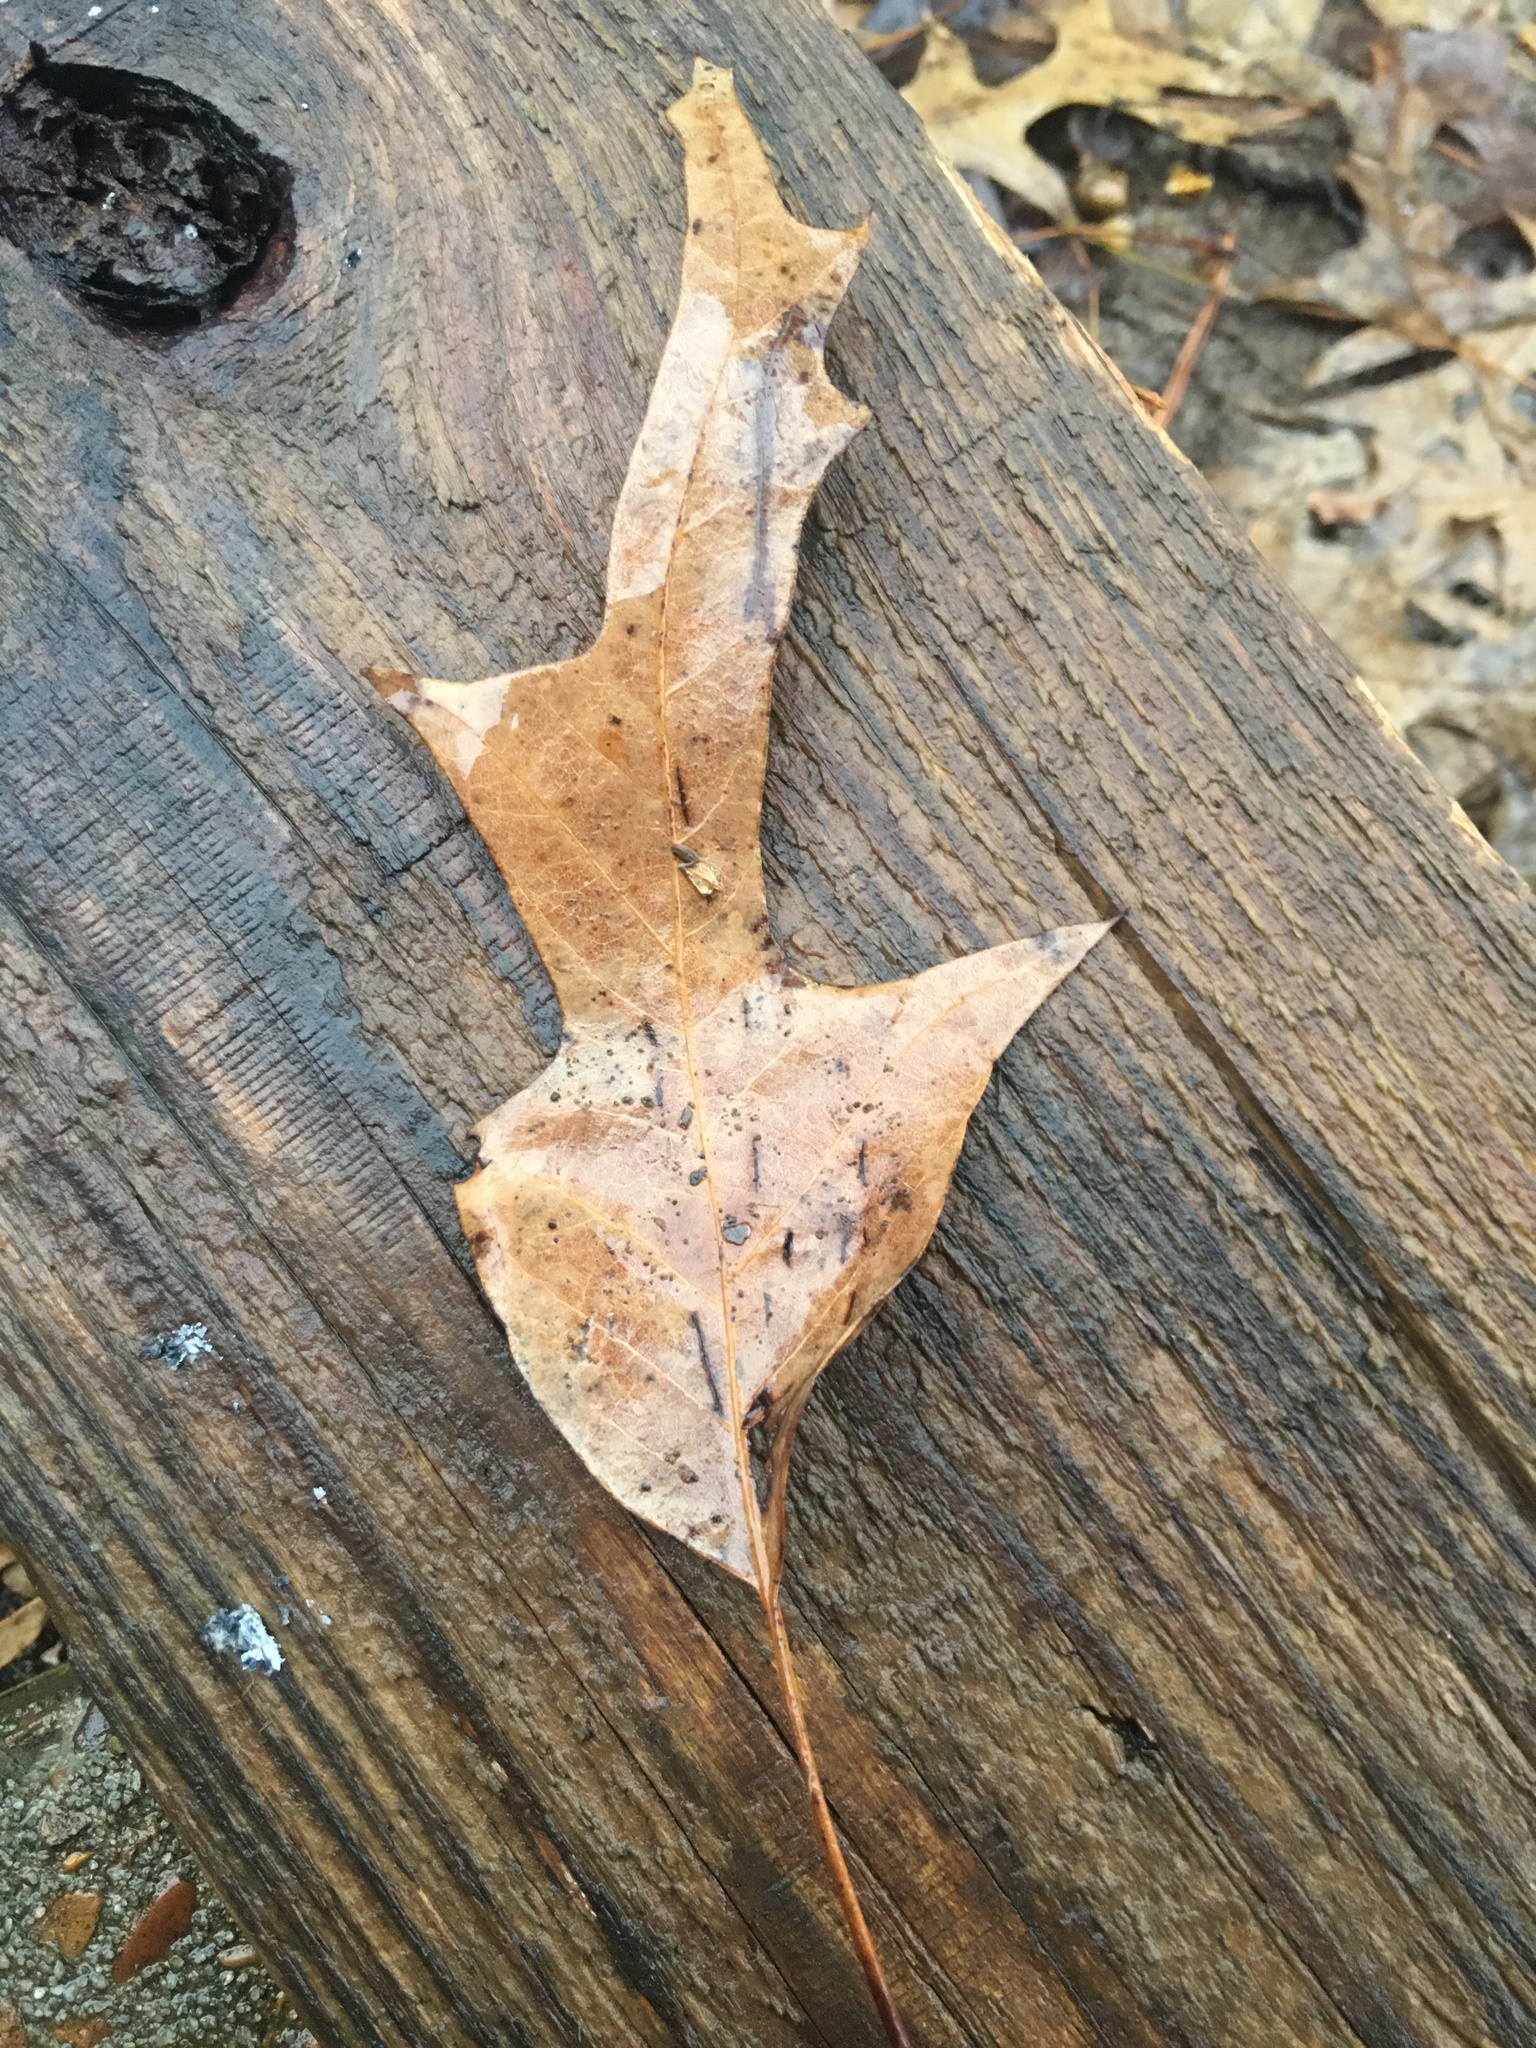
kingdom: Plantae
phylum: Tracheophyta
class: Magnoliopsida
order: Fagales
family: Fagaceae
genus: Quercus
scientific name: Quercus falcata
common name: Southern red oak
